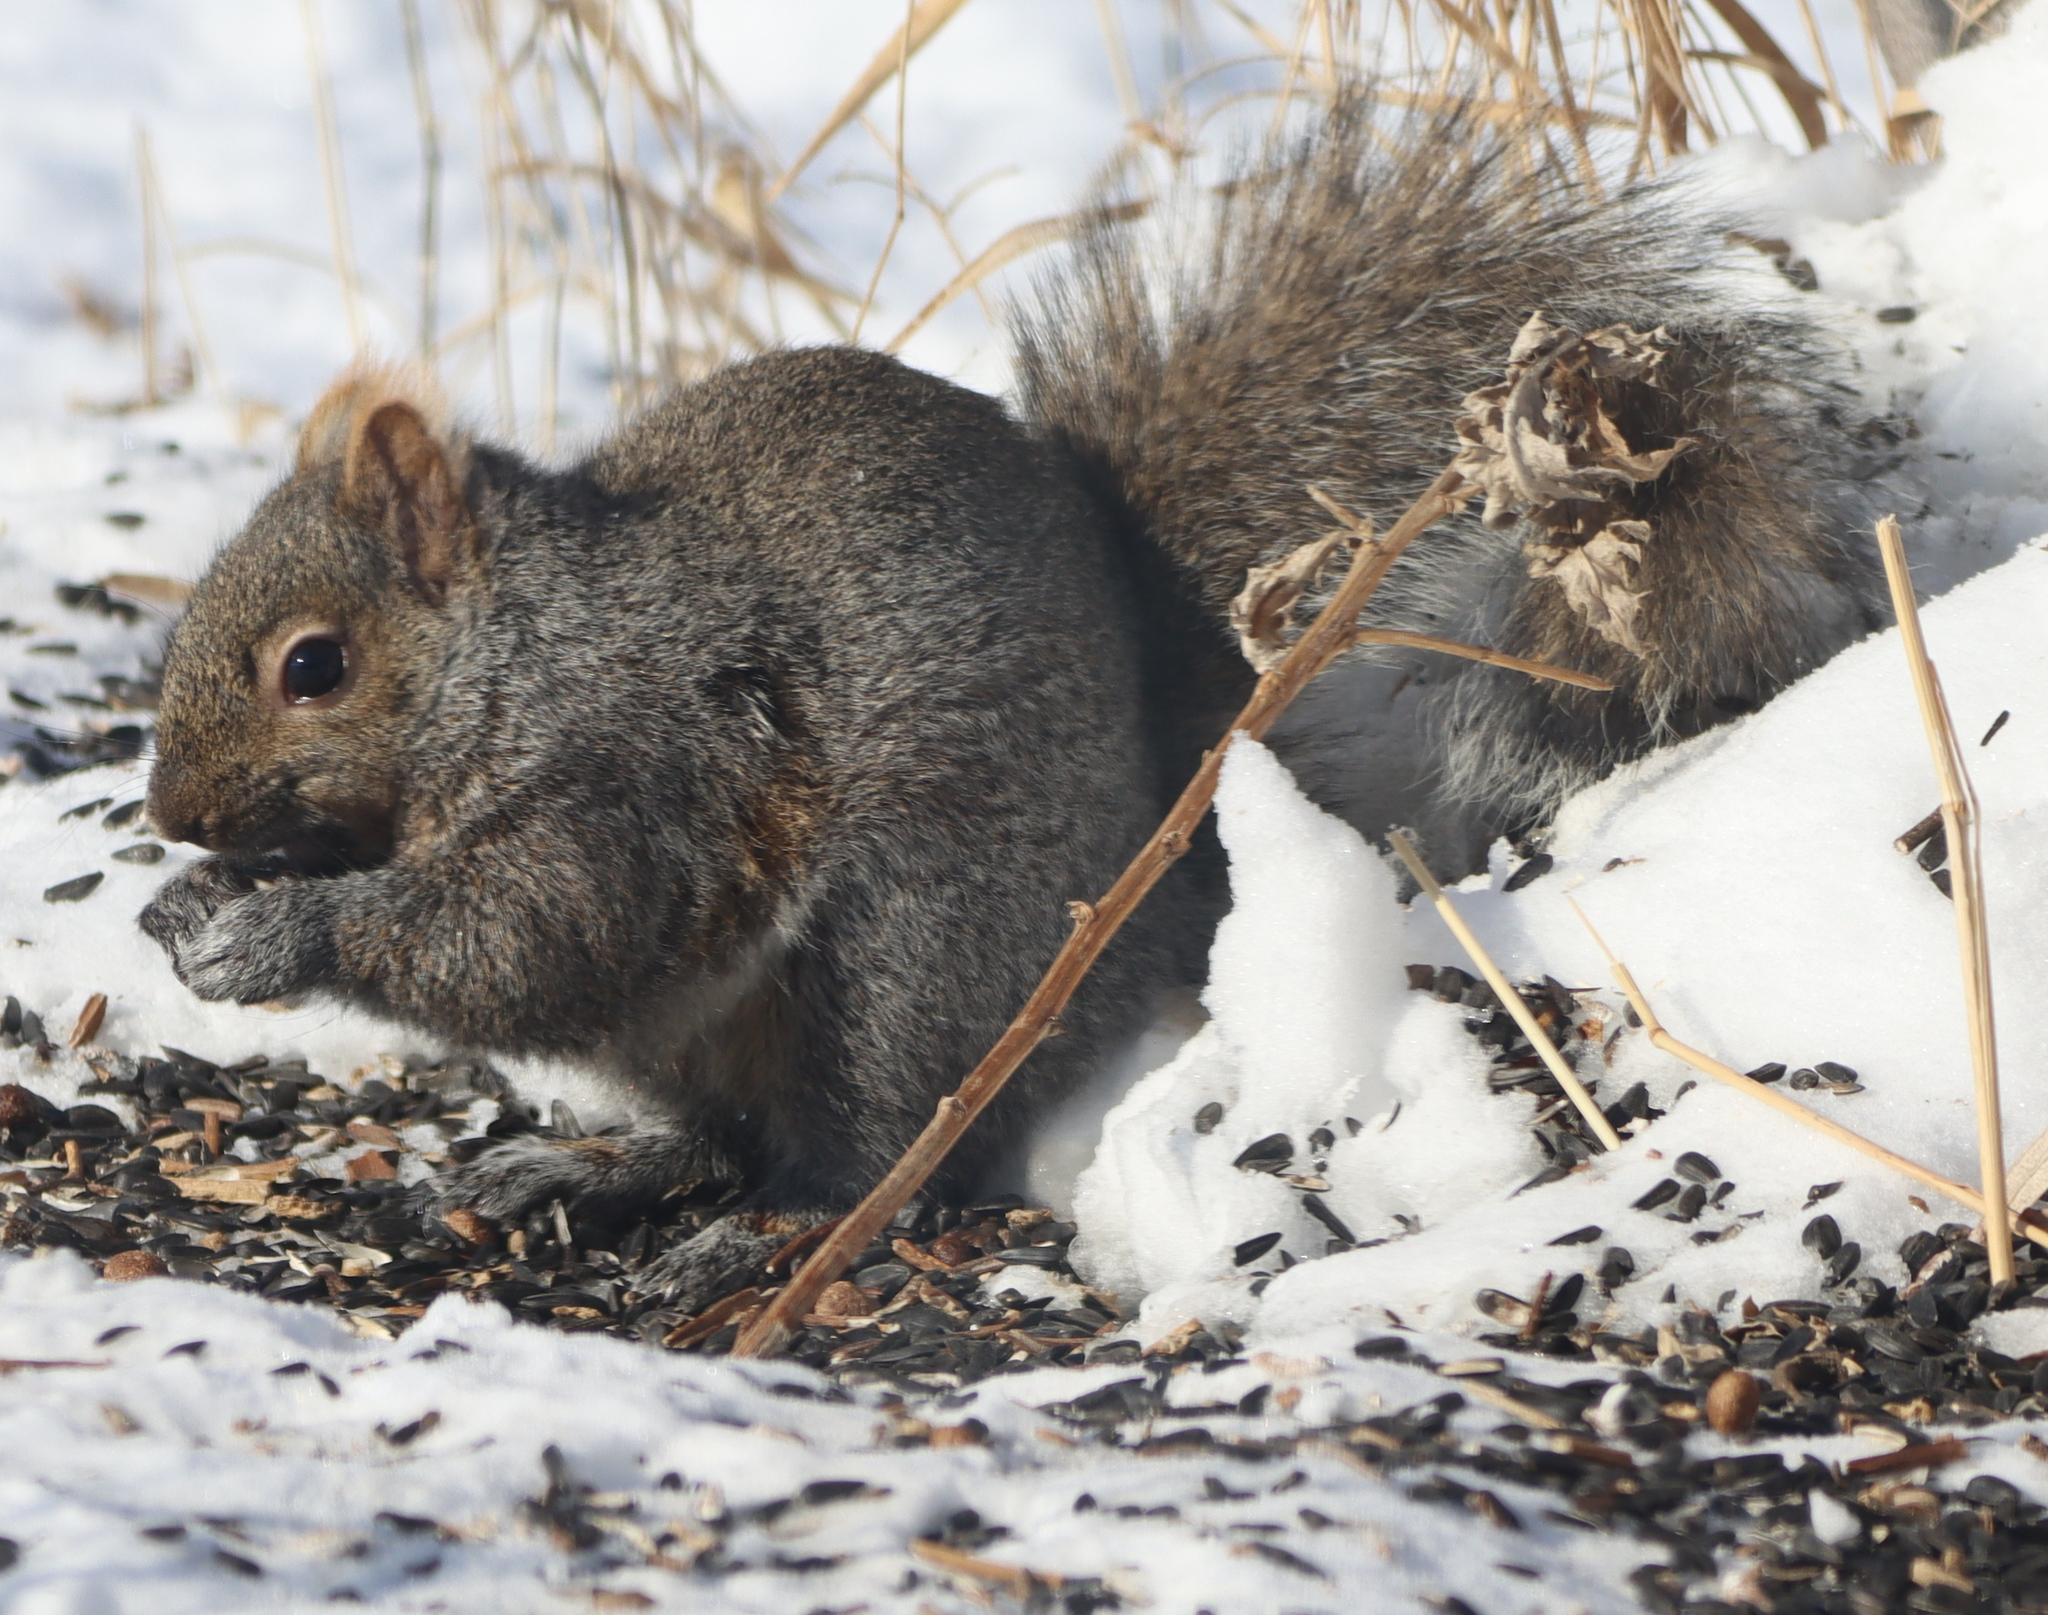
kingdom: Animalia
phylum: Chordata
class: Mammalia
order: Rodentia
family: Sciuridae
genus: Sciurus
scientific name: Sciurus carolinensis
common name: Eastern gray squirrel
